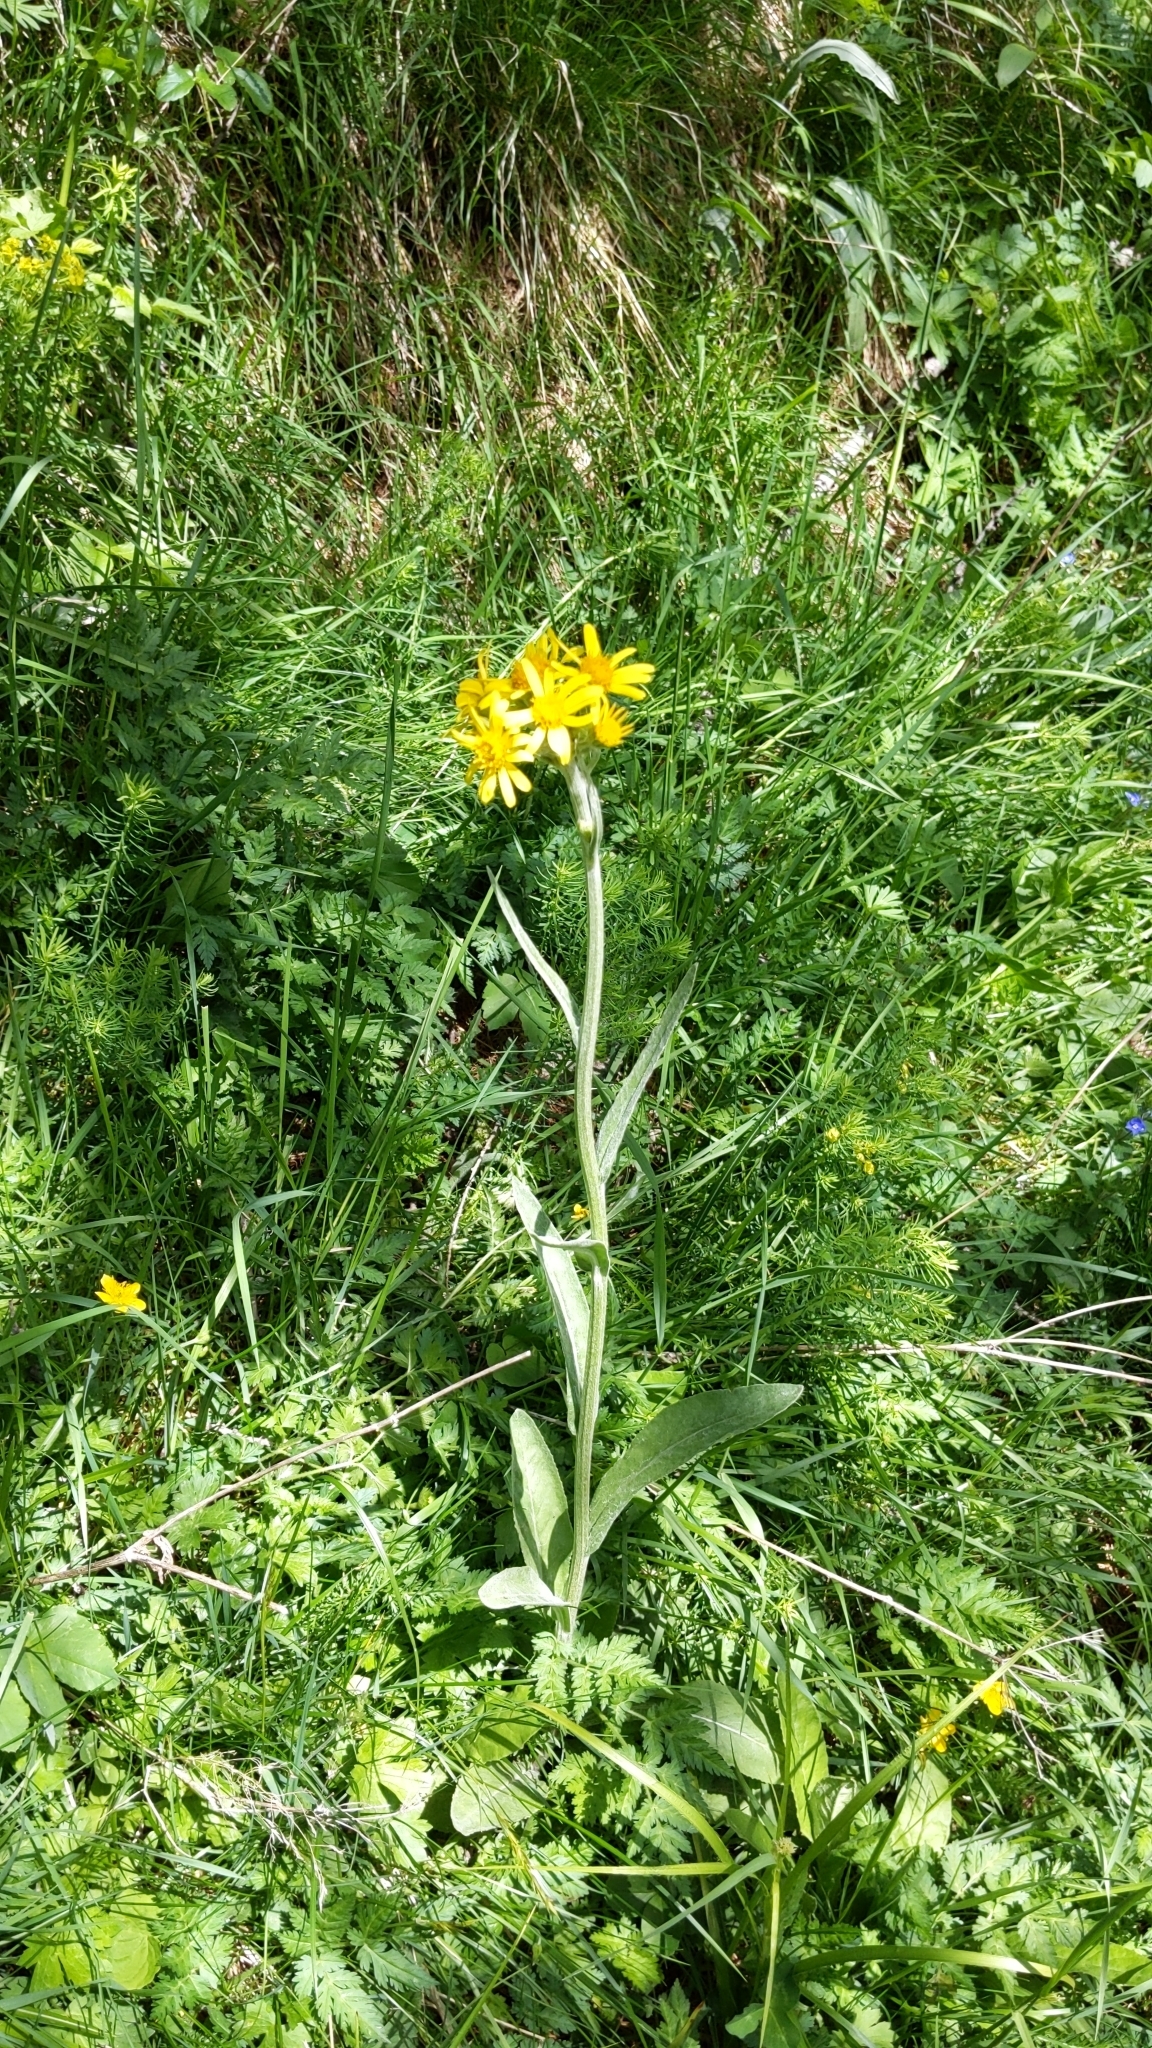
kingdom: Plantae
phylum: Tracheophyta
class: Magnoliopsida
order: Asterales
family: Asteraceae
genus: Tephroseris
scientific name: Tephroseris tenuifolia
